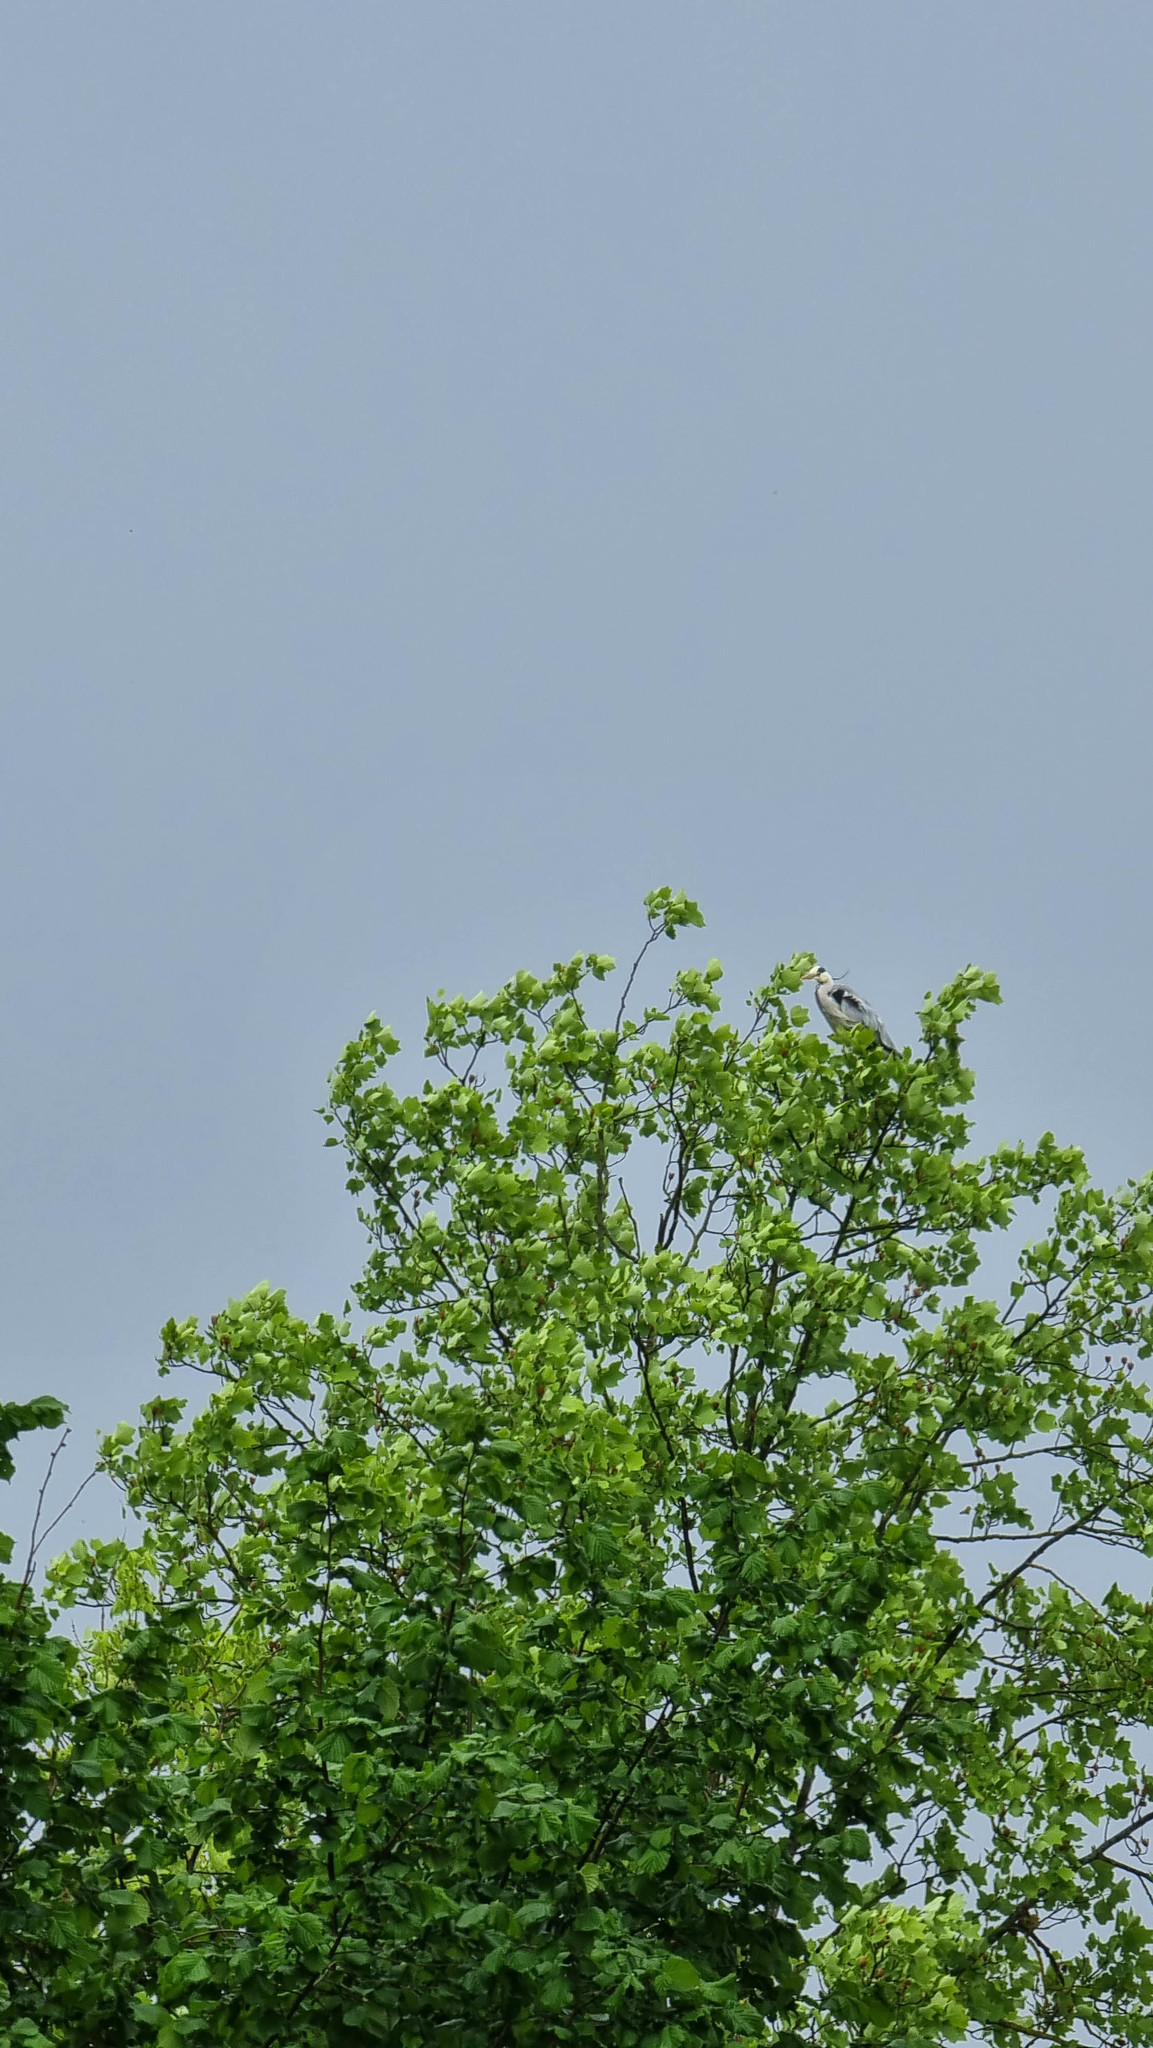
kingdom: Animalia
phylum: Chordata
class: Aves
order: Pelecaniformes
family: Ardeidae
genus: Ardea
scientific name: Ardea cinerea
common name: Grey heron
